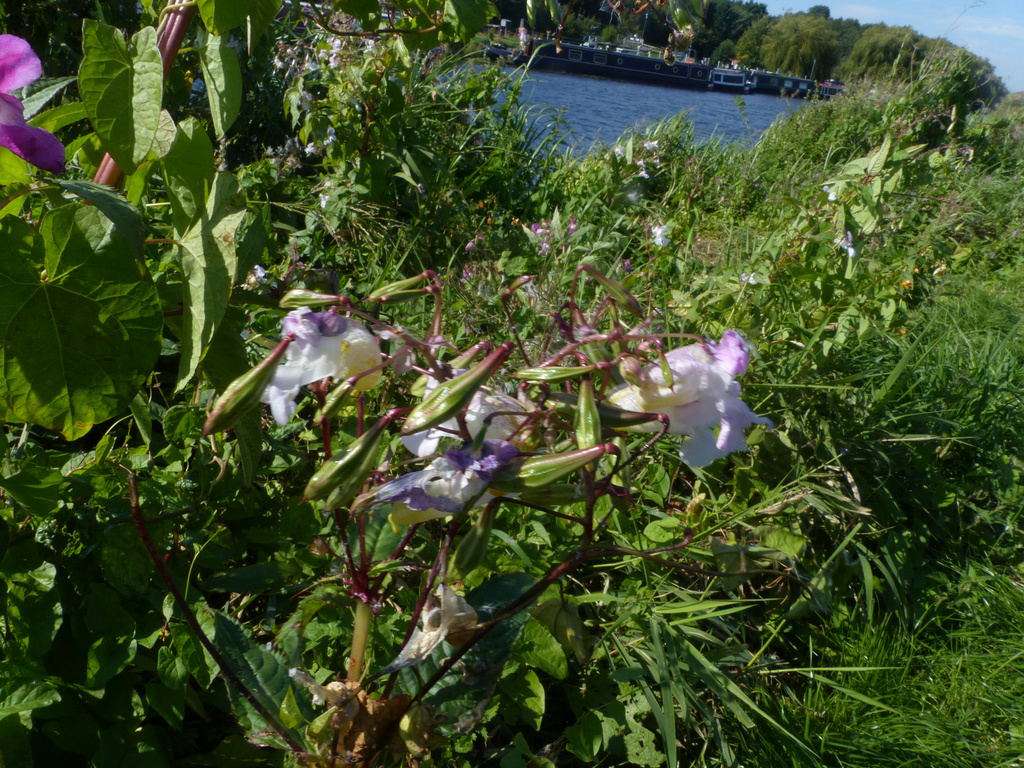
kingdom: Plantae
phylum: Tracheophyta
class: Magnoliopsida
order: Ericales
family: Balsaminaceae
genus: Impatiens
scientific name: Impatiens glandulifera
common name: Himalayan balsam
